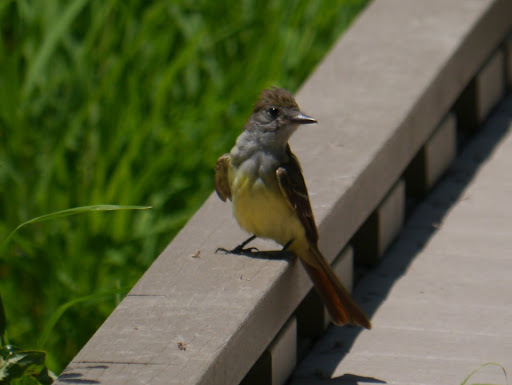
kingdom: Animalia
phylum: Chordata
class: Aves
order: Passeriformes
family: Tyrannidae
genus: Myiarchus
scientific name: Myiarchus crinitus
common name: Great crested flycatcher
